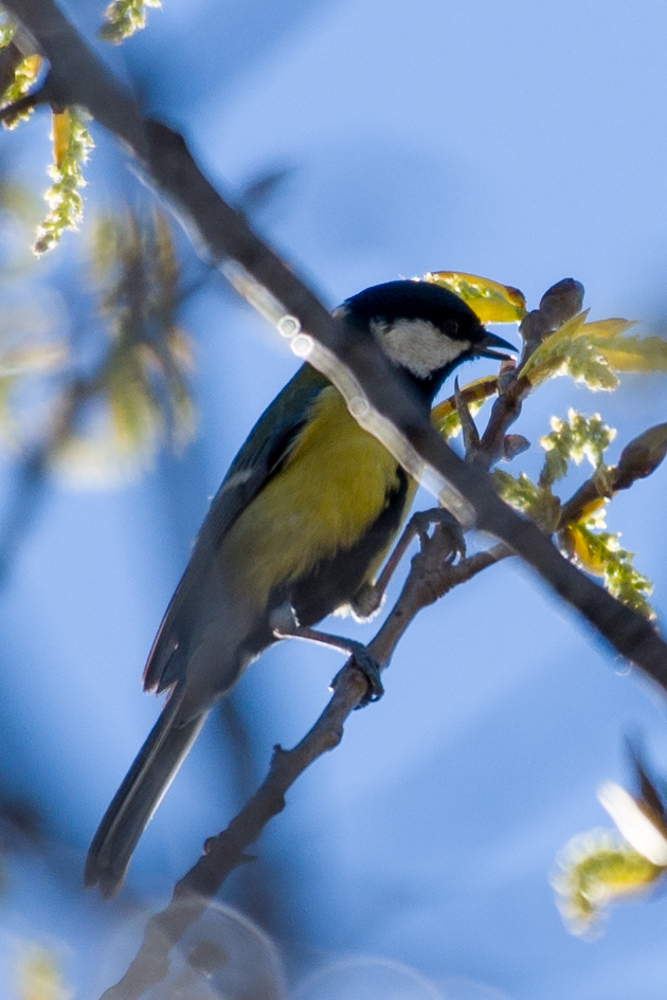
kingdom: Animalia
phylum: Chordata
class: Aves
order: Passeriformes
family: Paridae
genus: Parus
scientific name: Parus major
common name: Great tit
